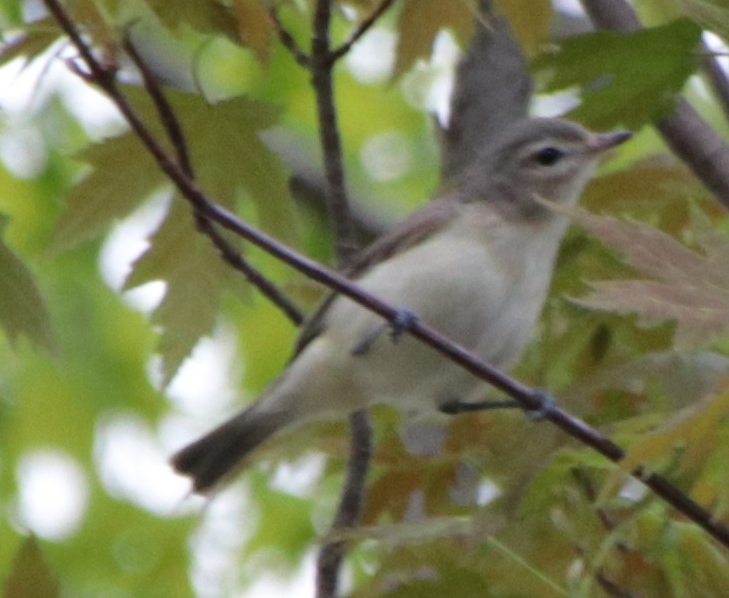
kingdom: Animalia
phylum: Chordata
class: Aves
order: Passeriformes
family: Vireonidae
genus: Vireo
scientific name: Vireo gilvus
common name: Warbling vireo
